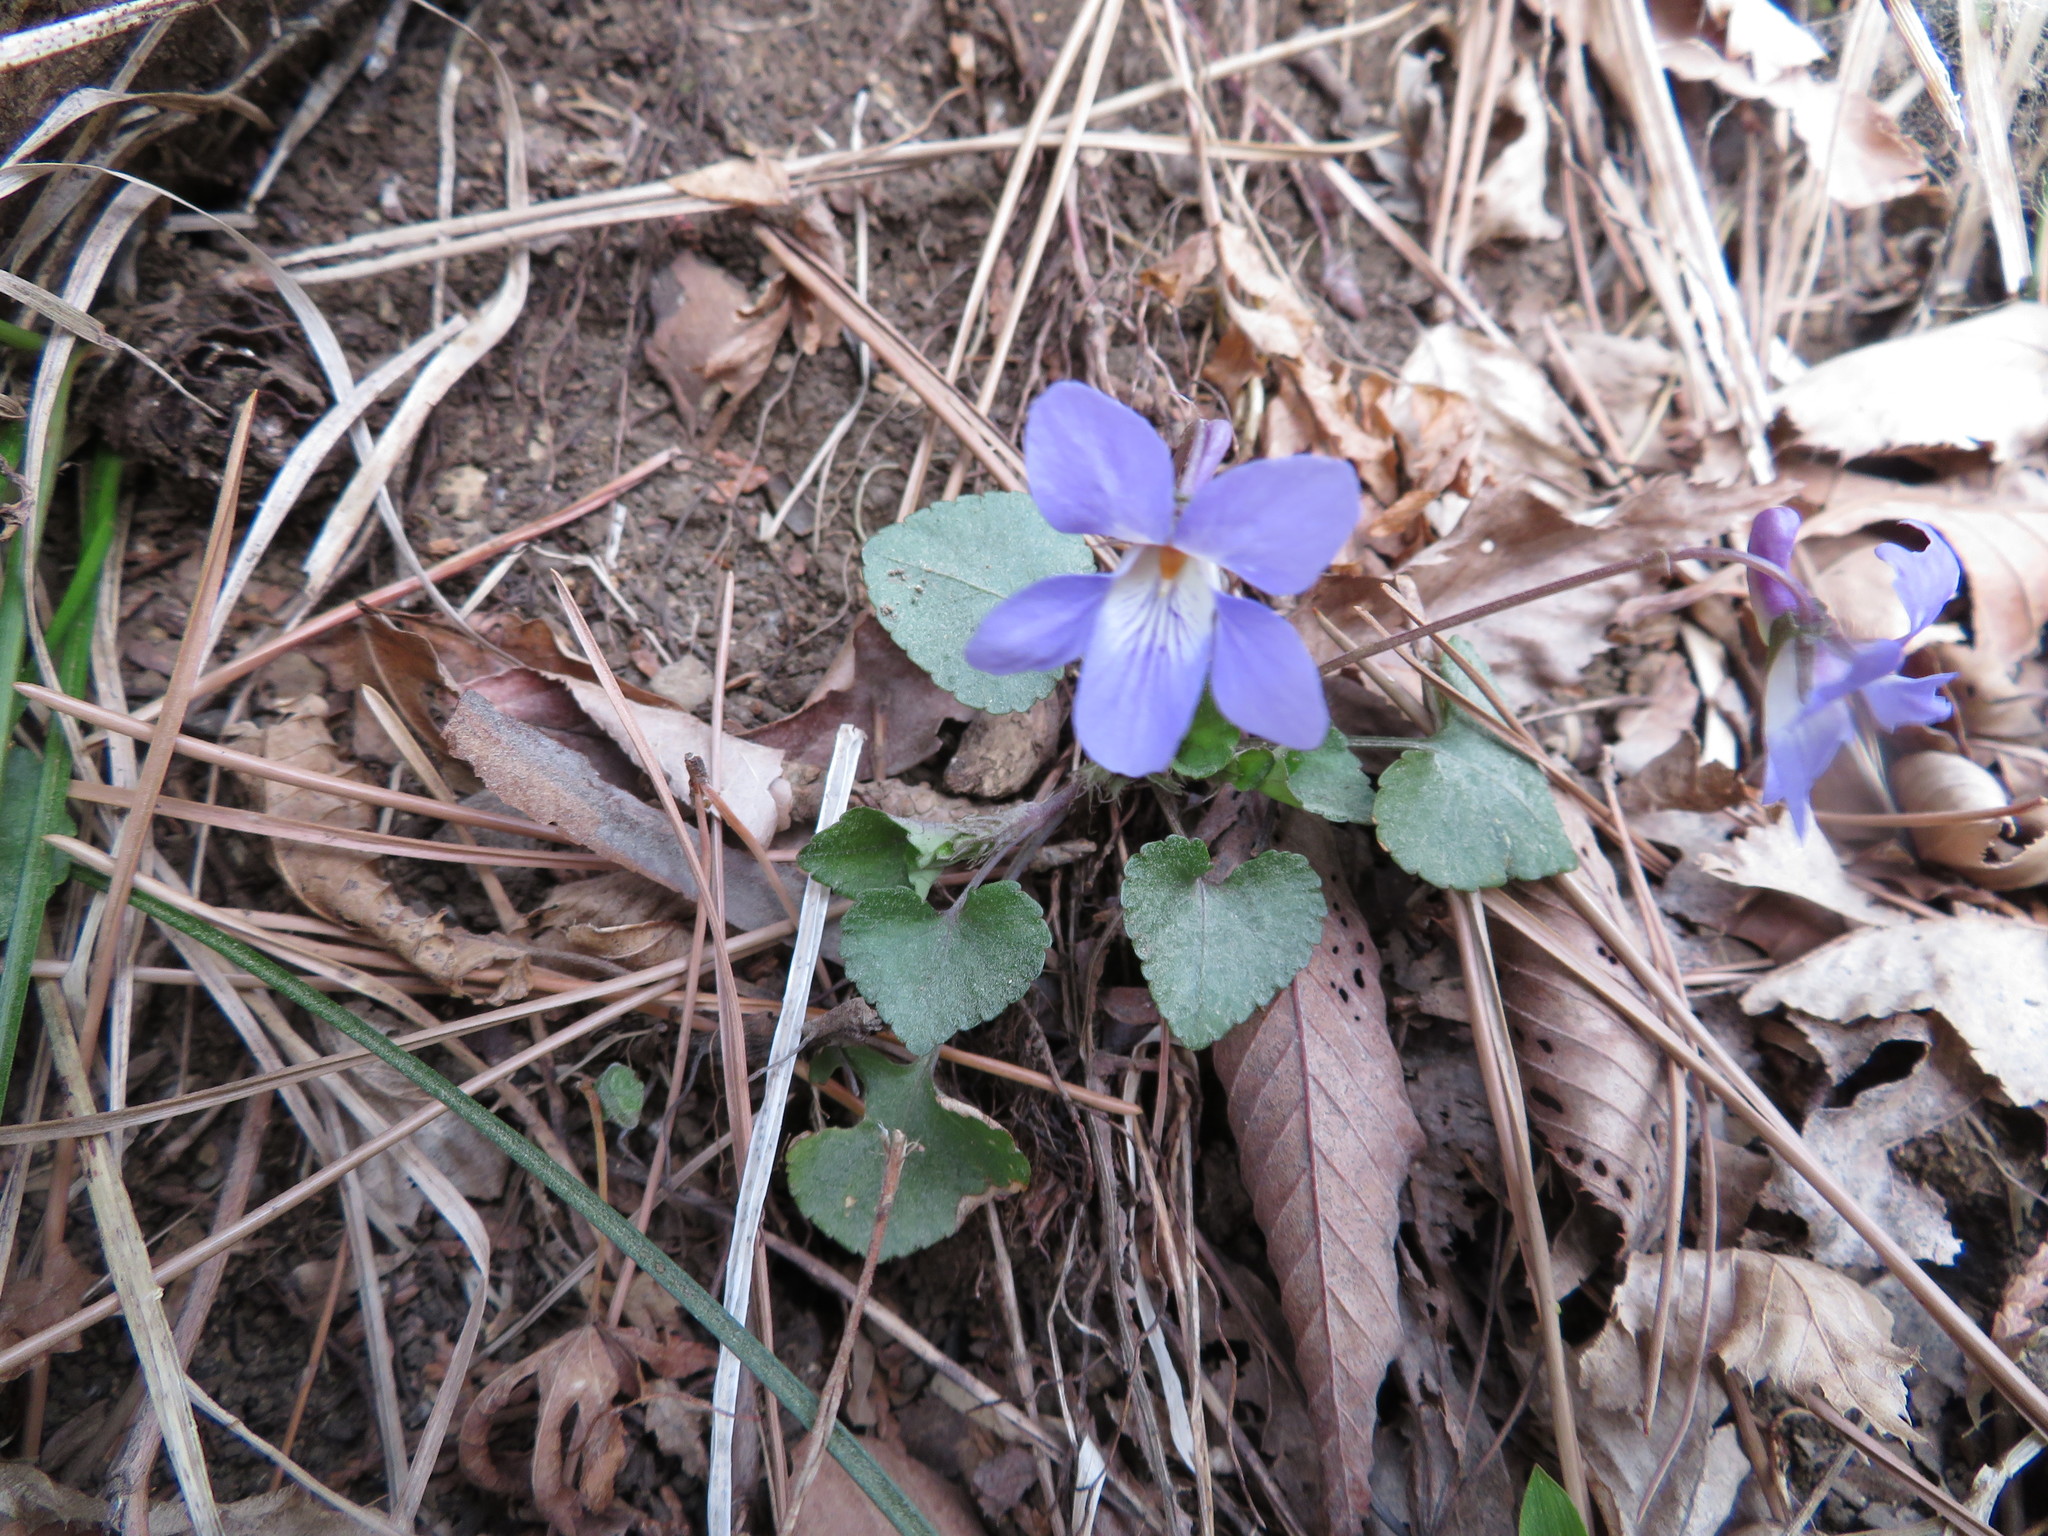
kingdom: Plantae
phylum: Tracheophyta
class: Magnoliopsida
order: Malpighiales
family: Violaceae
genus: Viola
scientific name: Viola grypoceras
